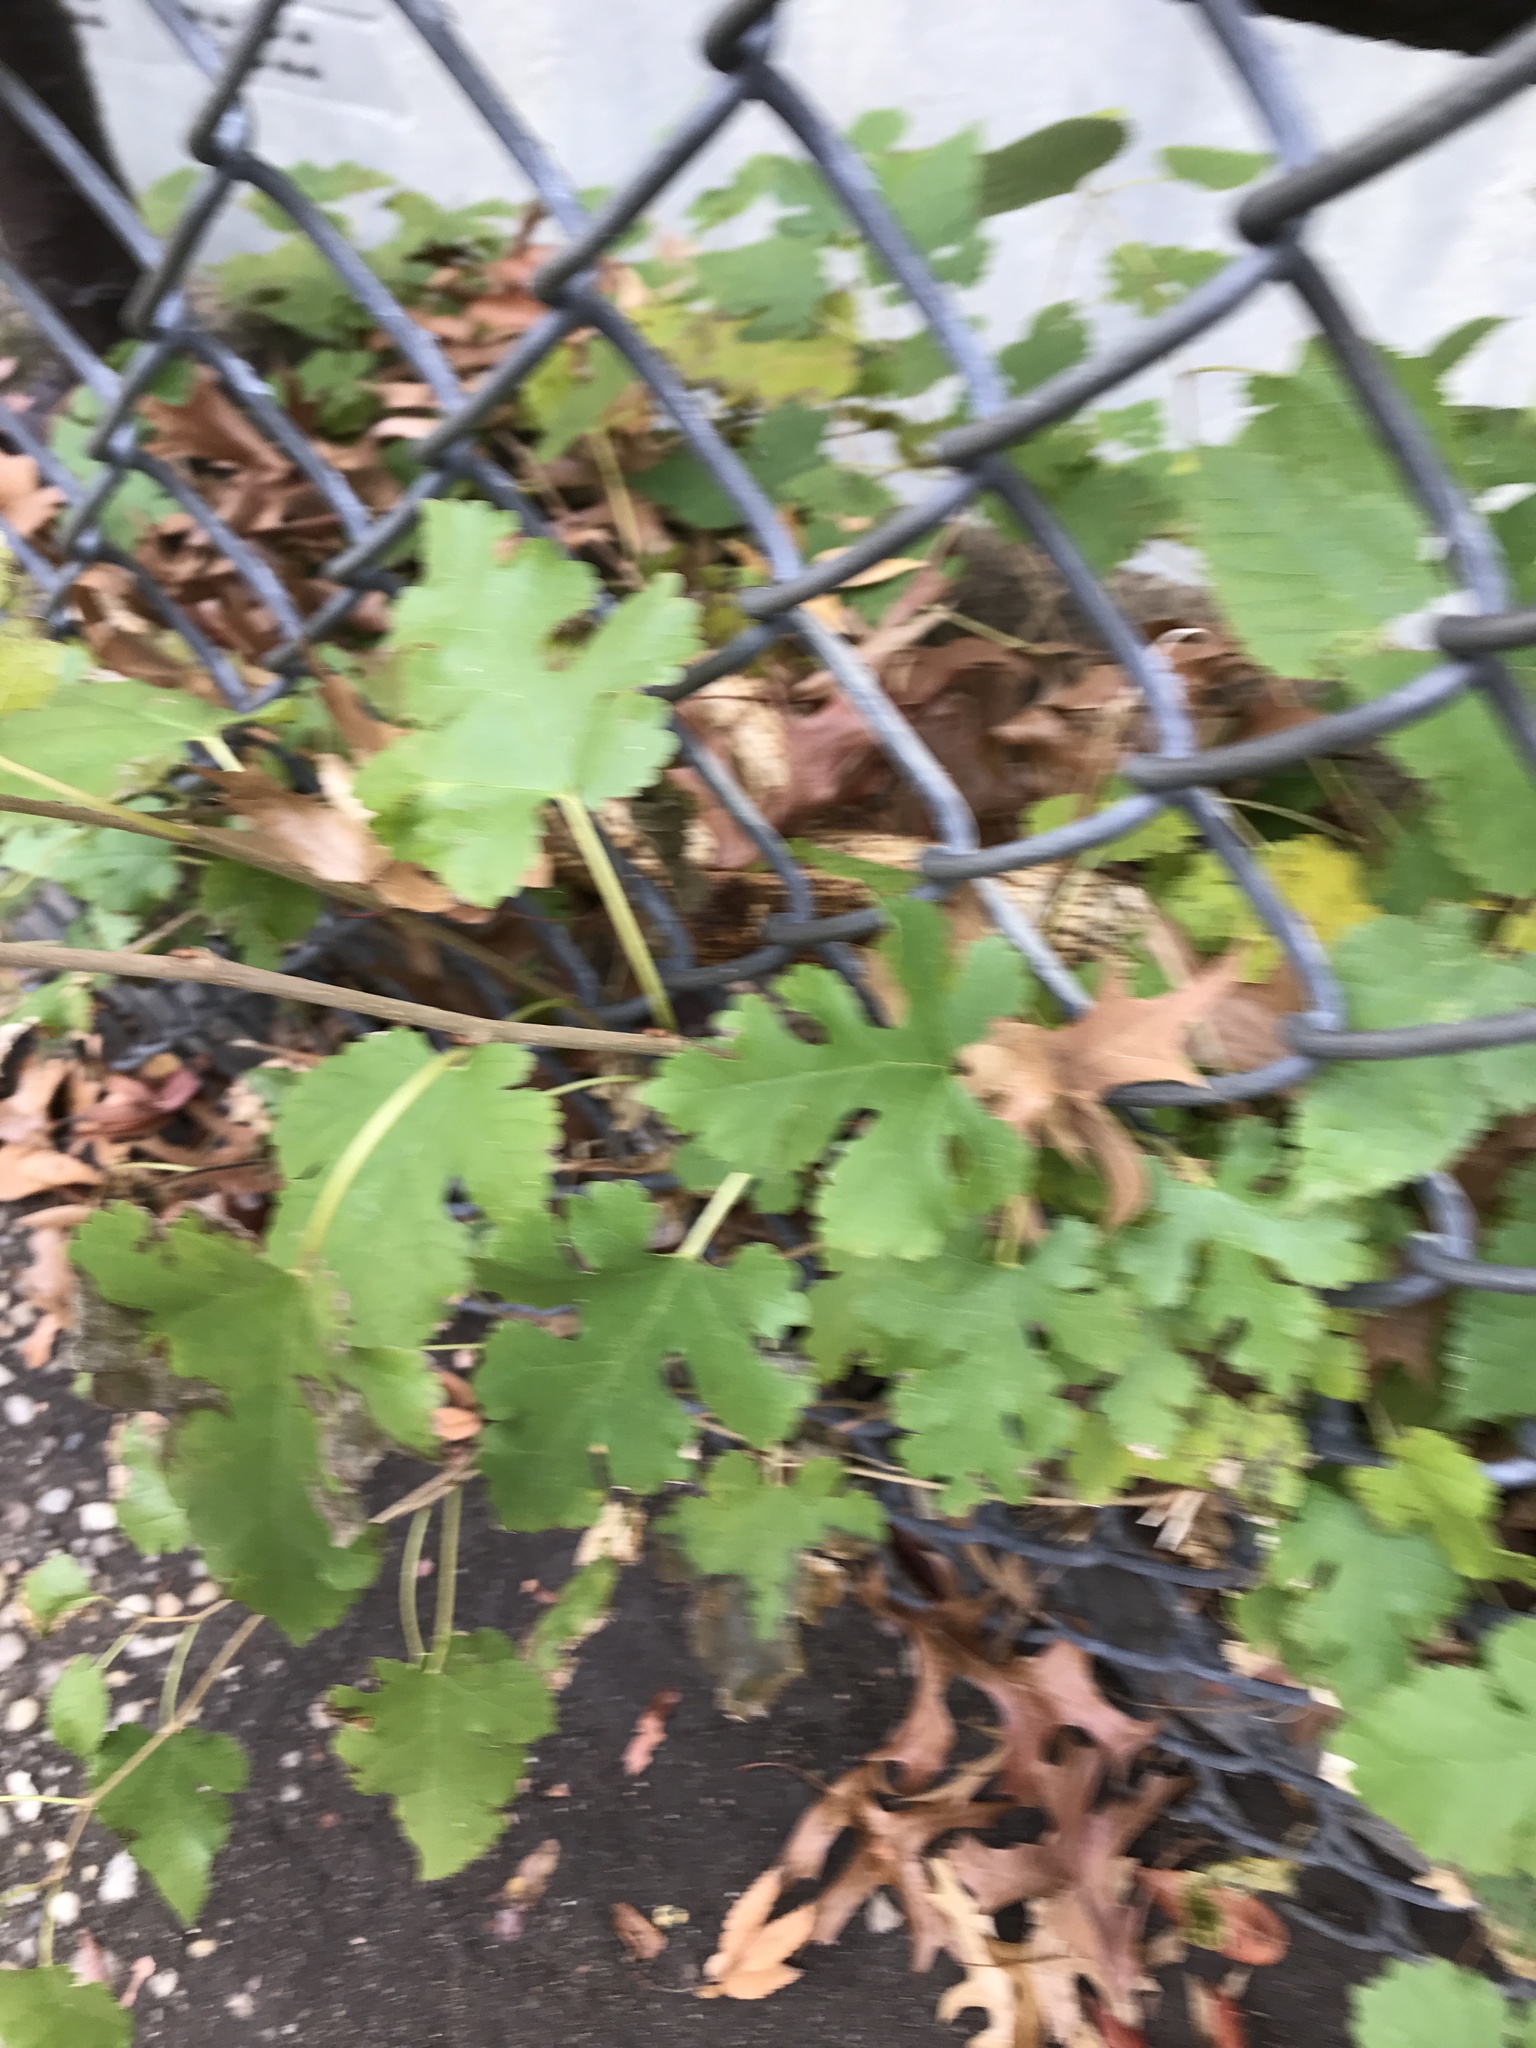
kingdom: Plantae
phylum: Tracheophyta
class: Magnoliopsida
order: Rosales
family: Moraceae
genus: Morus
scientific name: Morus alba
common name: White mulberry
